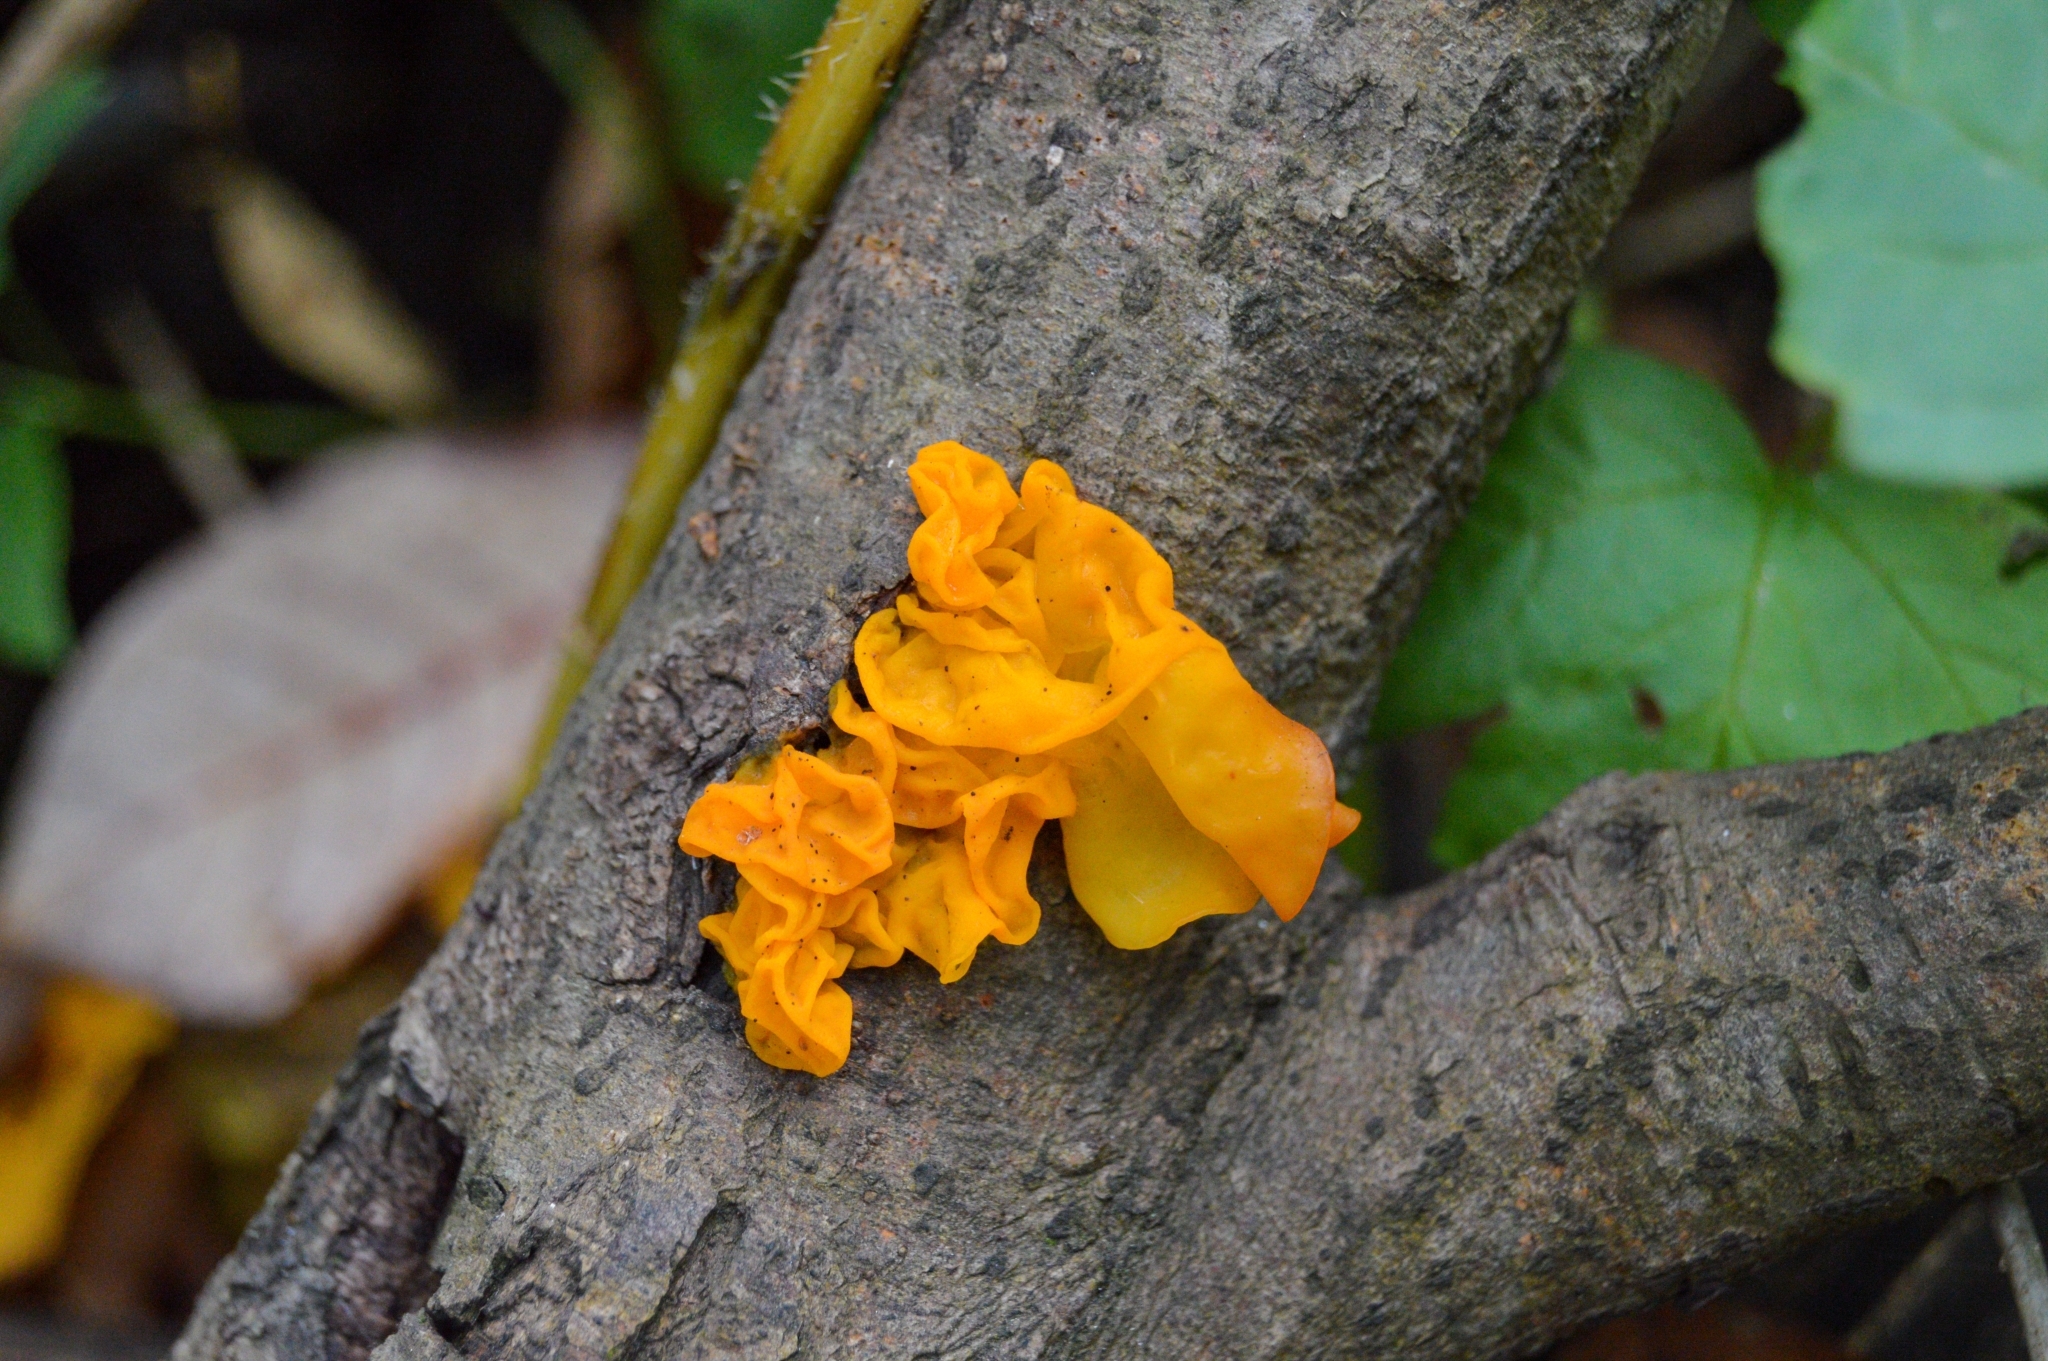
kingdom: Fungi
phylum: Basidiomycota
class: Tremellomycetes
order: Tremellales
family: Tremellaceae
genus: Tremella
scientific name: Tremella mesenterica
